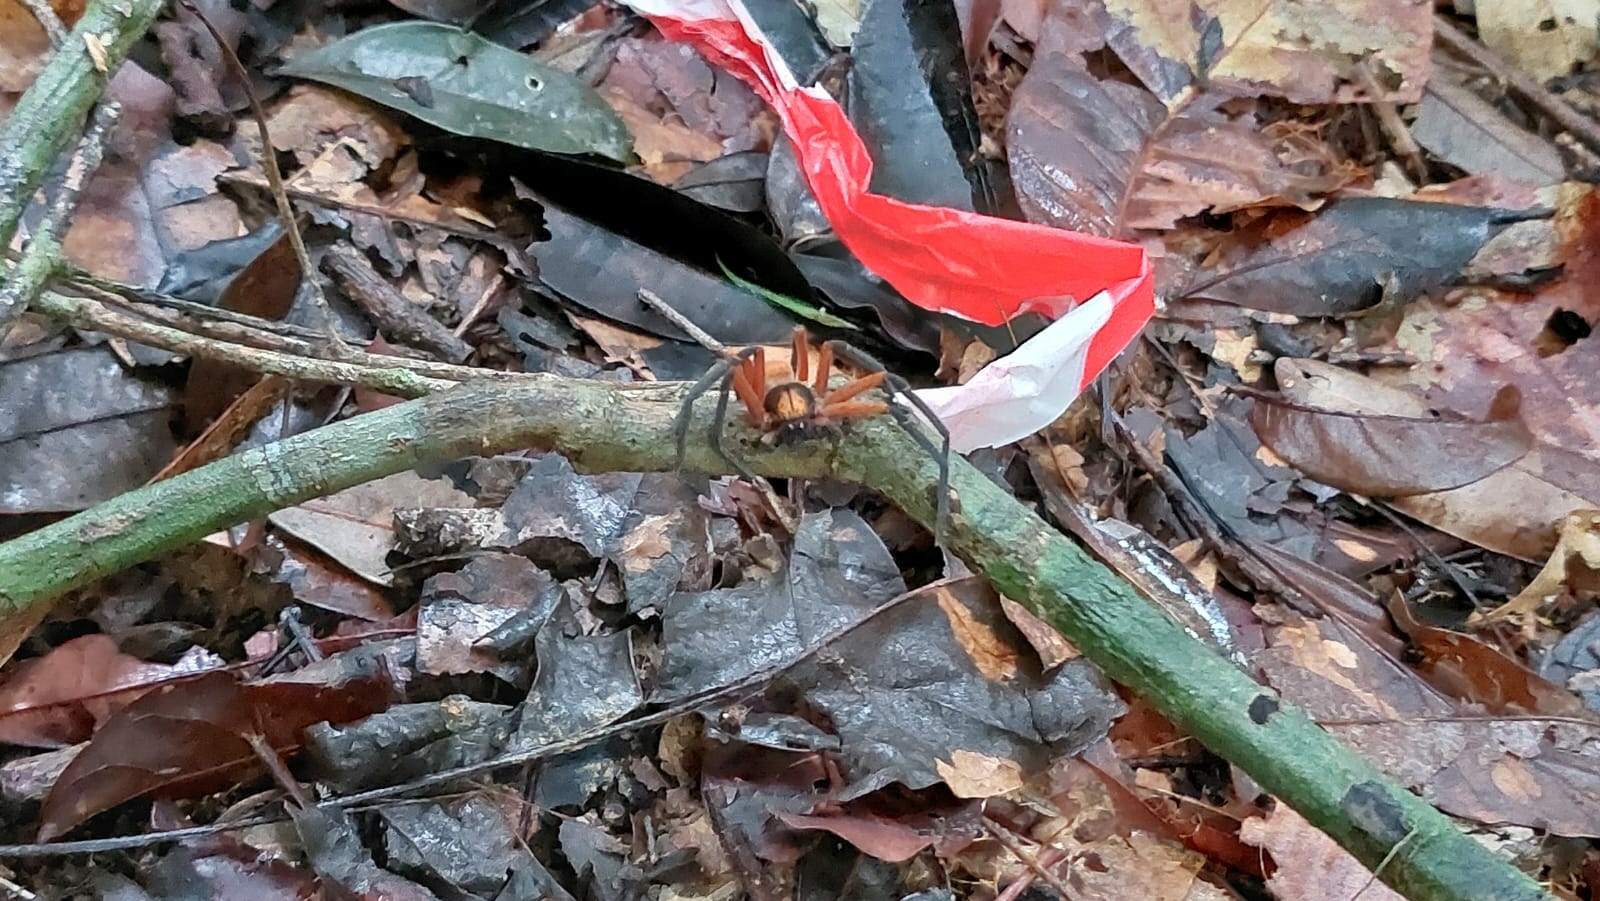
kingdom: Animalia
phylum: Arthropoda
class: Arachnida
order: Araneae
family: Sparassidae
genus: Sadala
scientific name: Sadala velox
